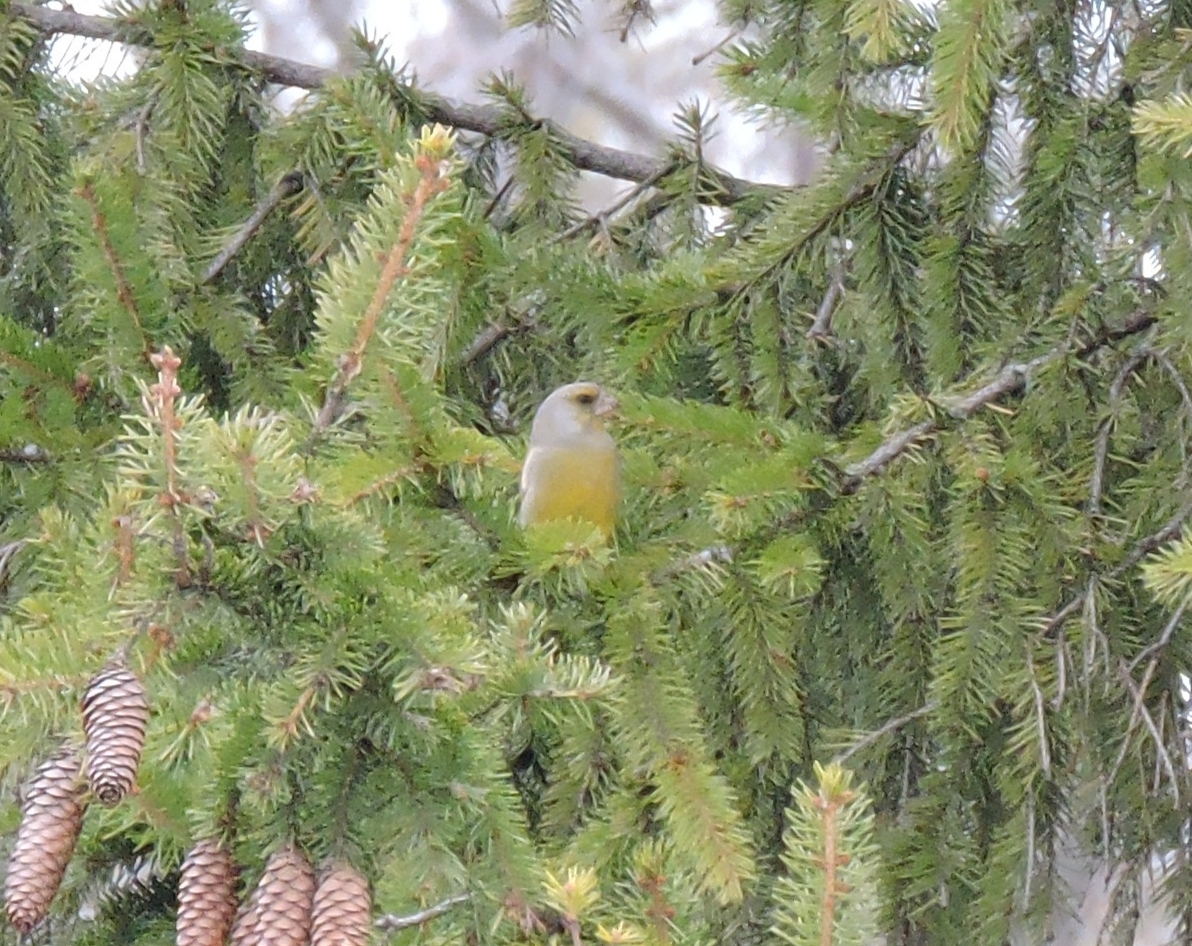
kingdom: Plantae
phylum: Tracheophyta
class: Liliopsida
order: Poales
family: Poaceae
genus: Chloris
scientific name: Chloris chloris
